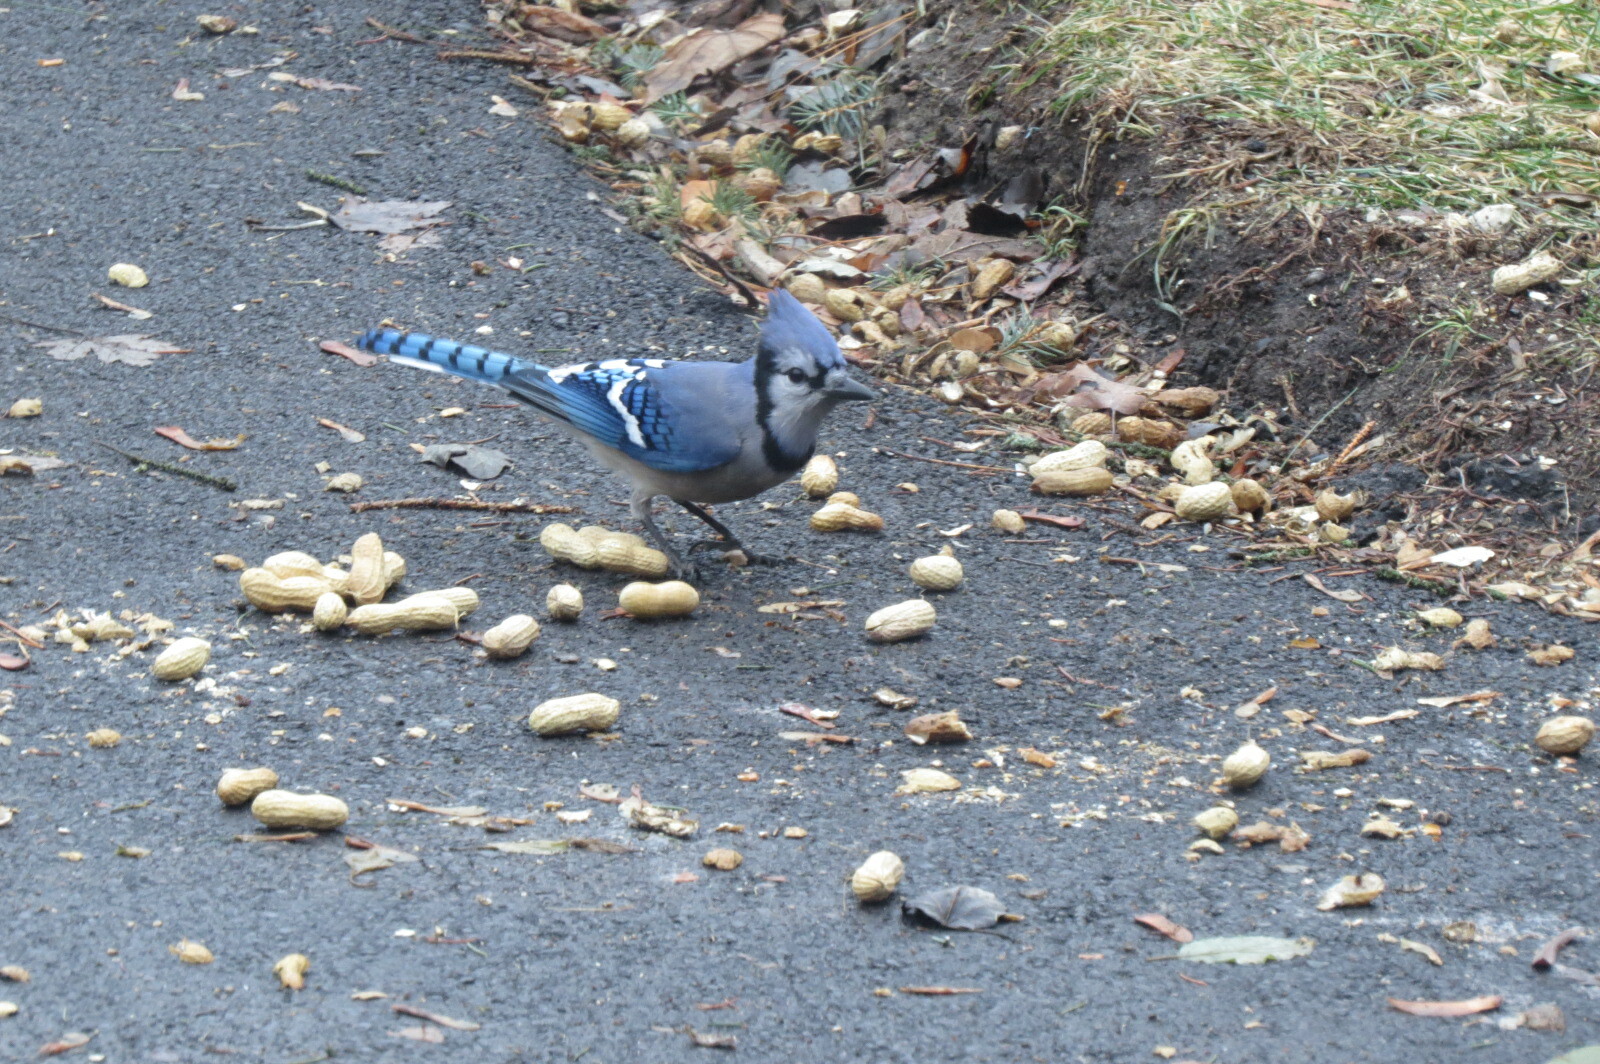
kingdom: Animalia
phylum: Chordata
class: Aves
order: Passeriformes
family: Corvidae
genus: Cyanocitta
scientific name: Cyanocitta cristata
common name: Blue jay
